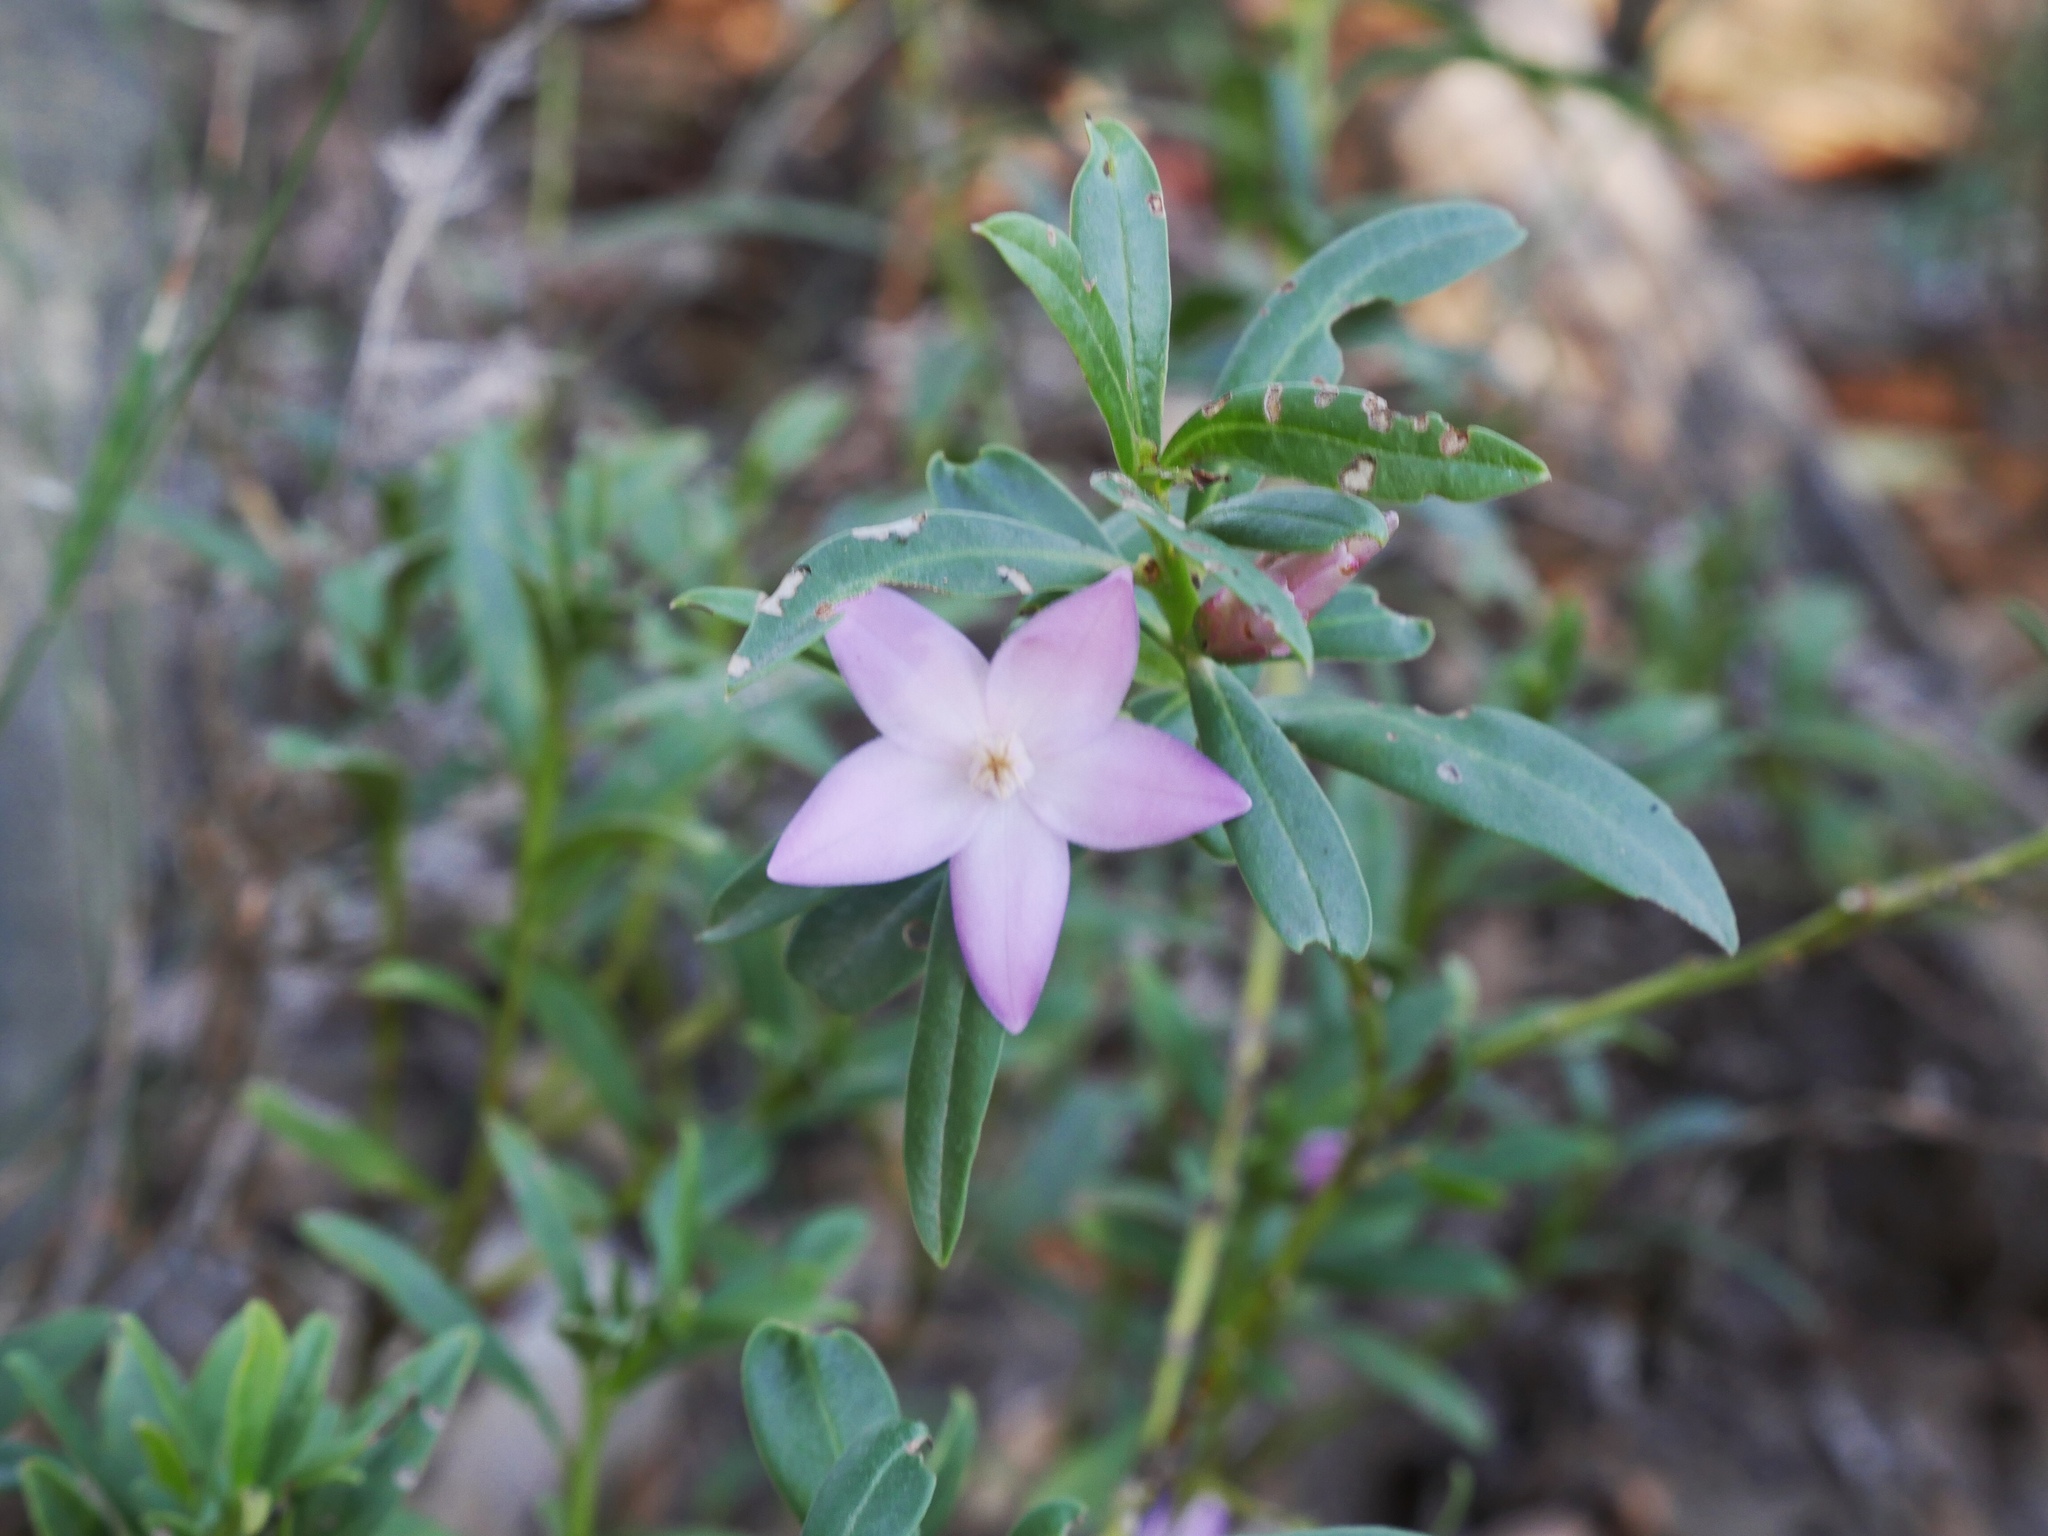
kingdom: Plantae
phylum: Tracheophyta
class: Magnoliopsida
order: Sapindales
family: Rutaceae
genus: Crowea
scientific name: Crowea saligna
